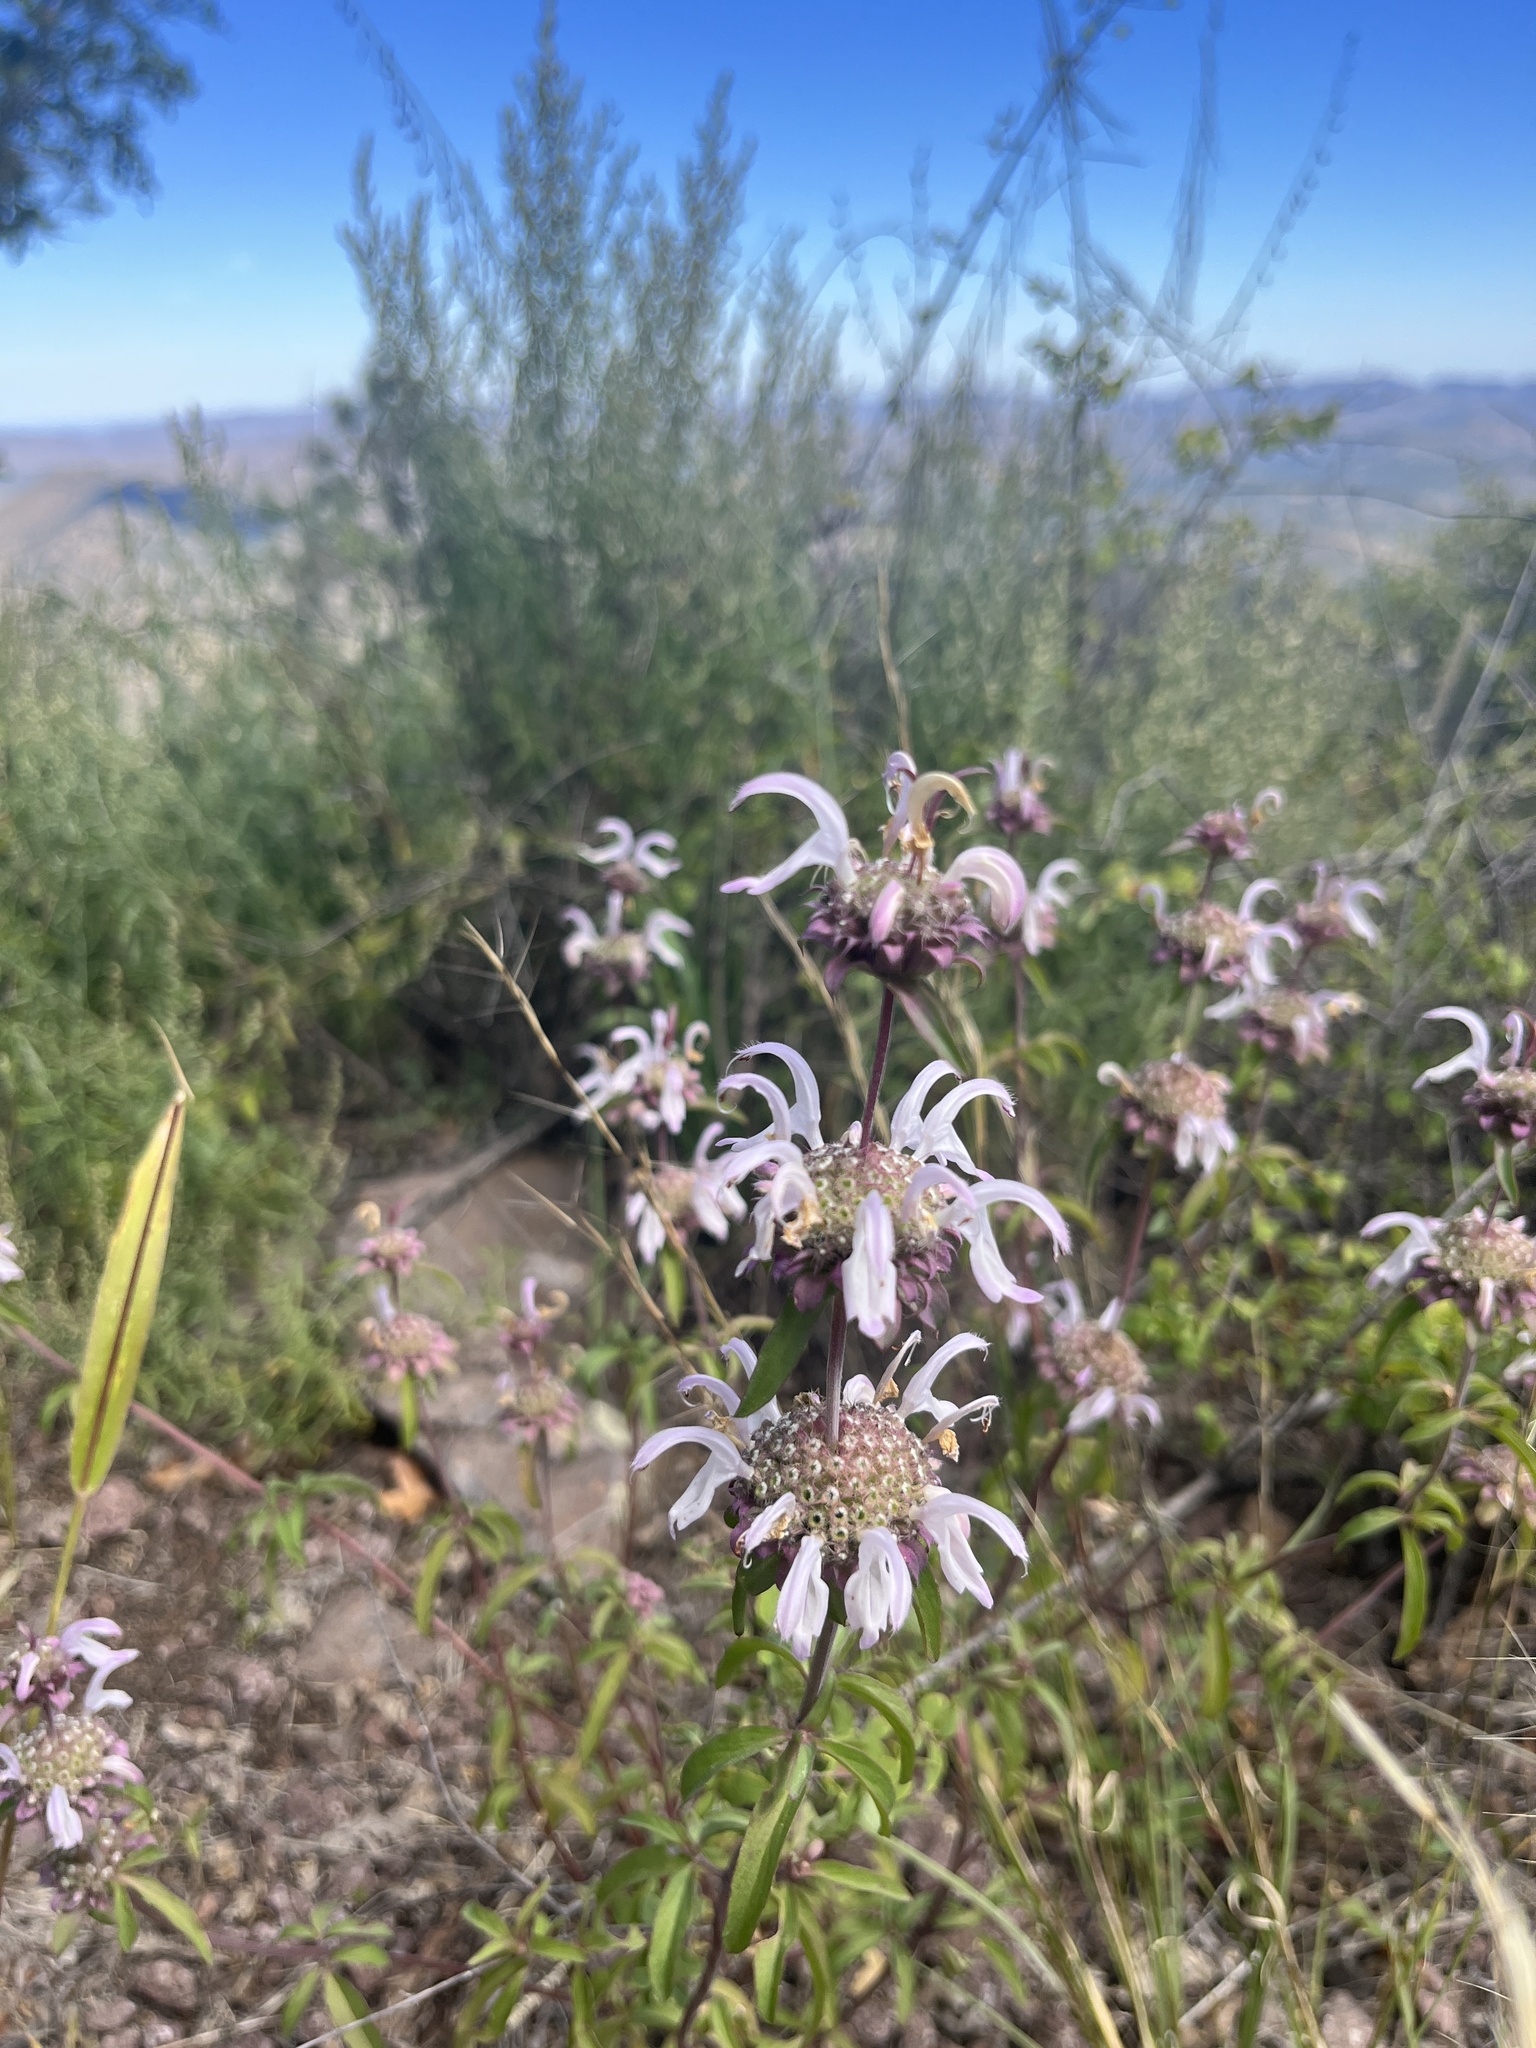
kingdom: Plantae
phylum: Tracheophyta
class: Magnoliopsida
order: Lamiales
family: Lamiaceae
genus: Monarda
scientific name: Monarda pectinata
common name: Plains beebalm
